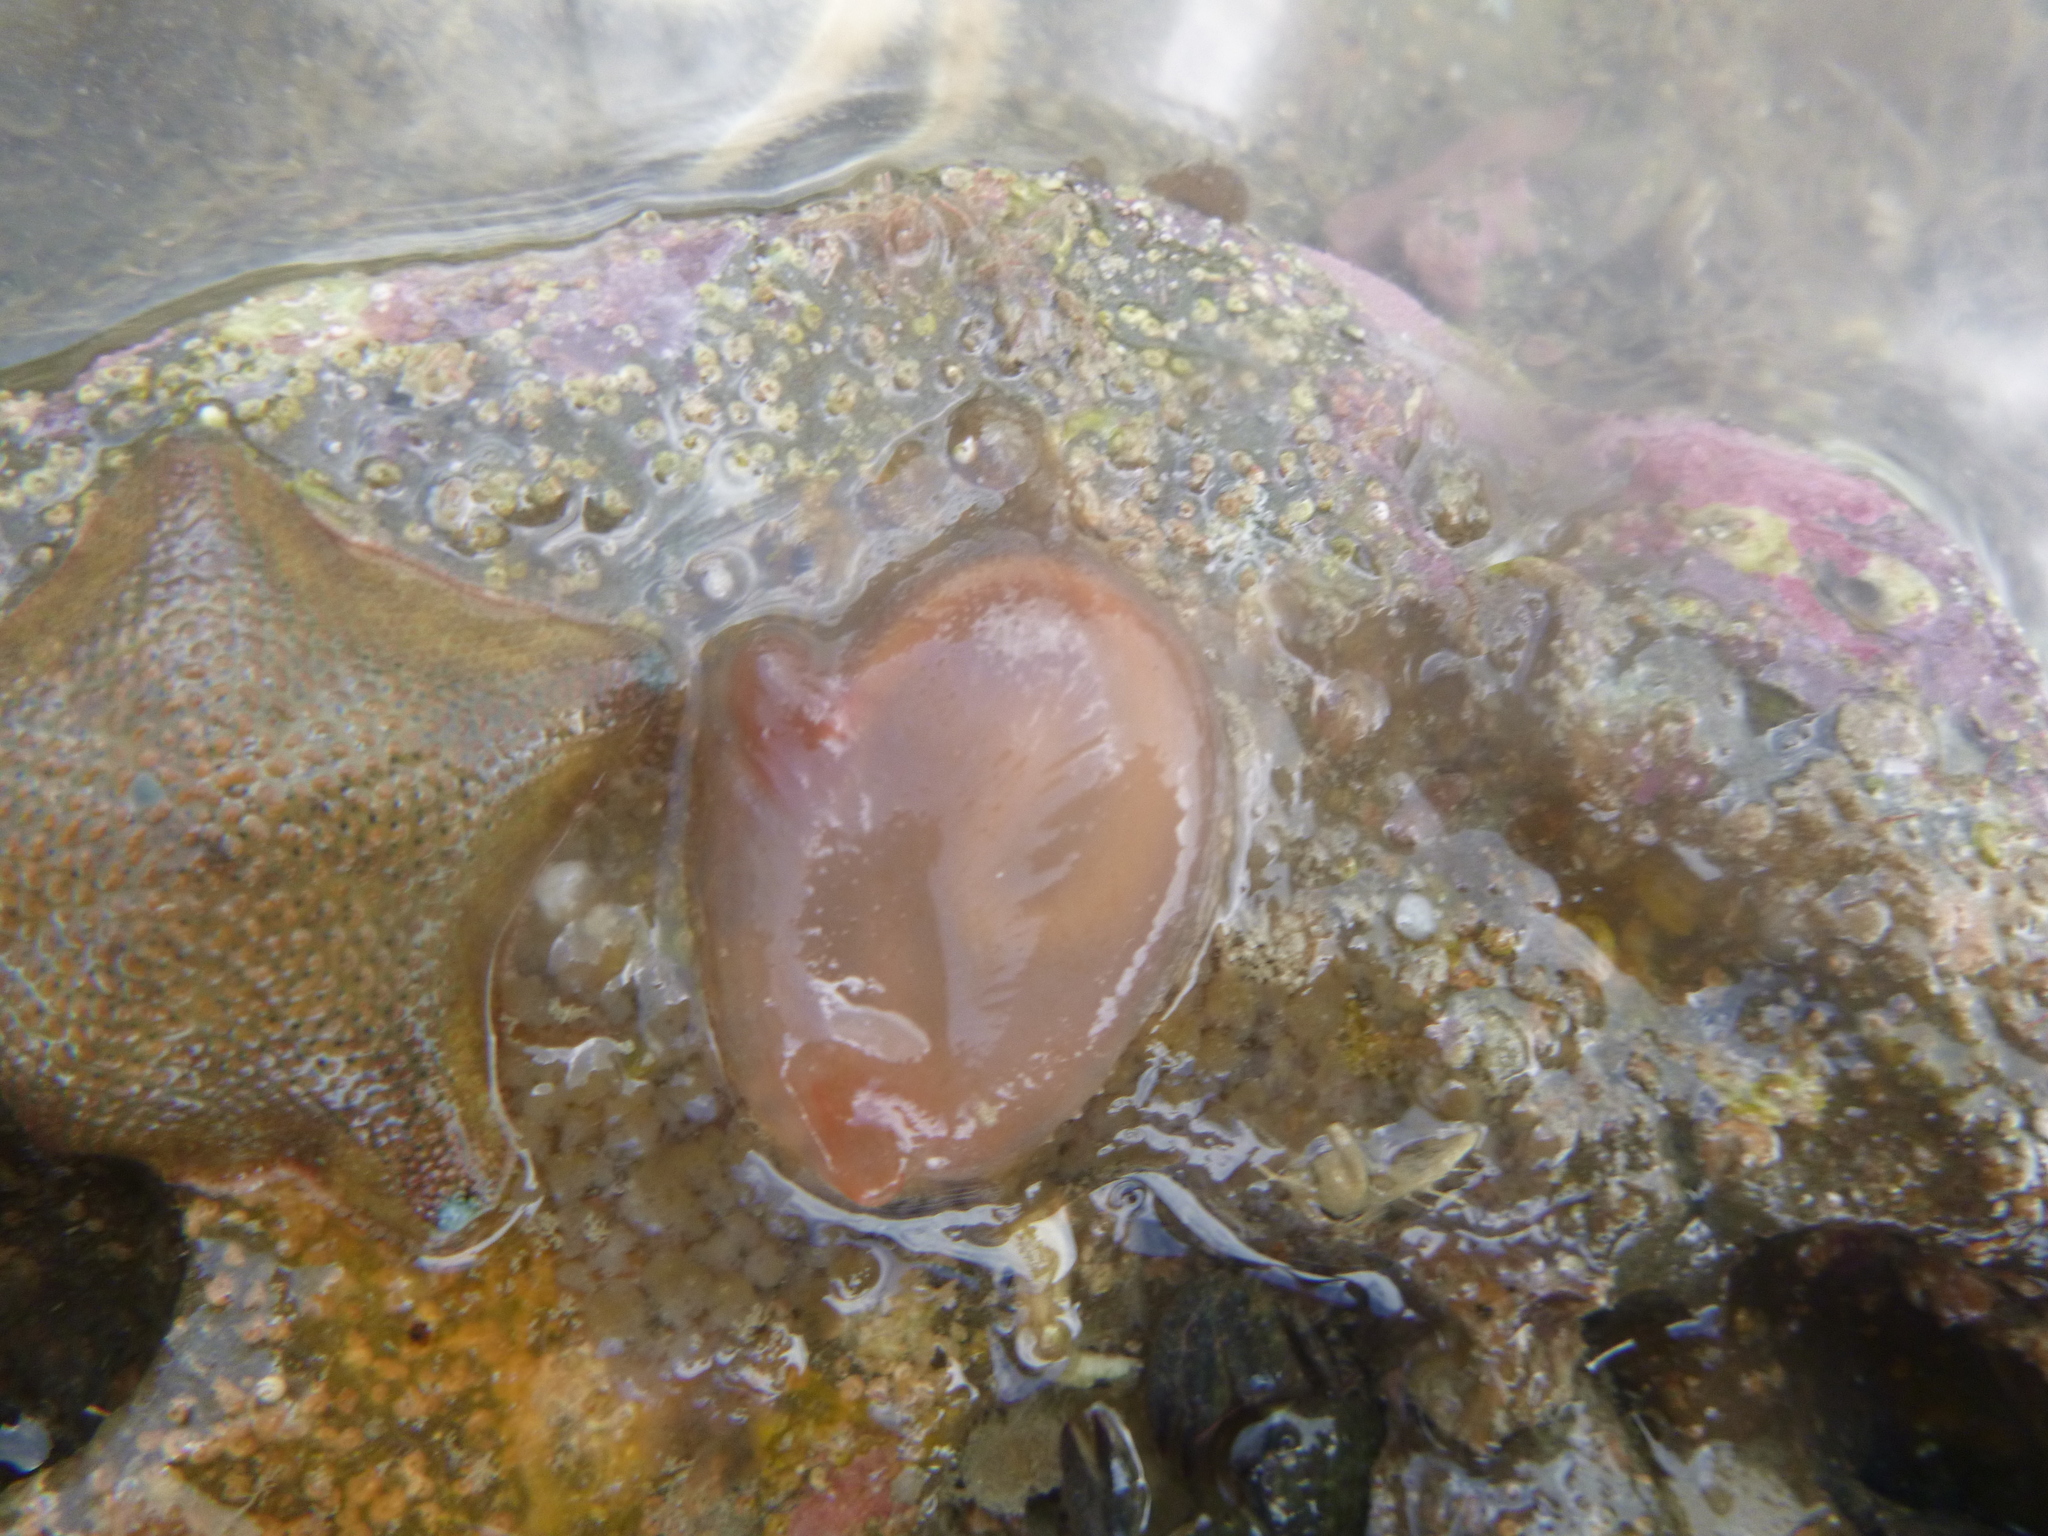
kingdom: Animalia
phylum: Chordata
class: Ascidiacea
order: Phlebobranchia
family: Corellidae
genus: Corella
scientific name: Corella eumyota
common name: Orange-tipped sea squirt
